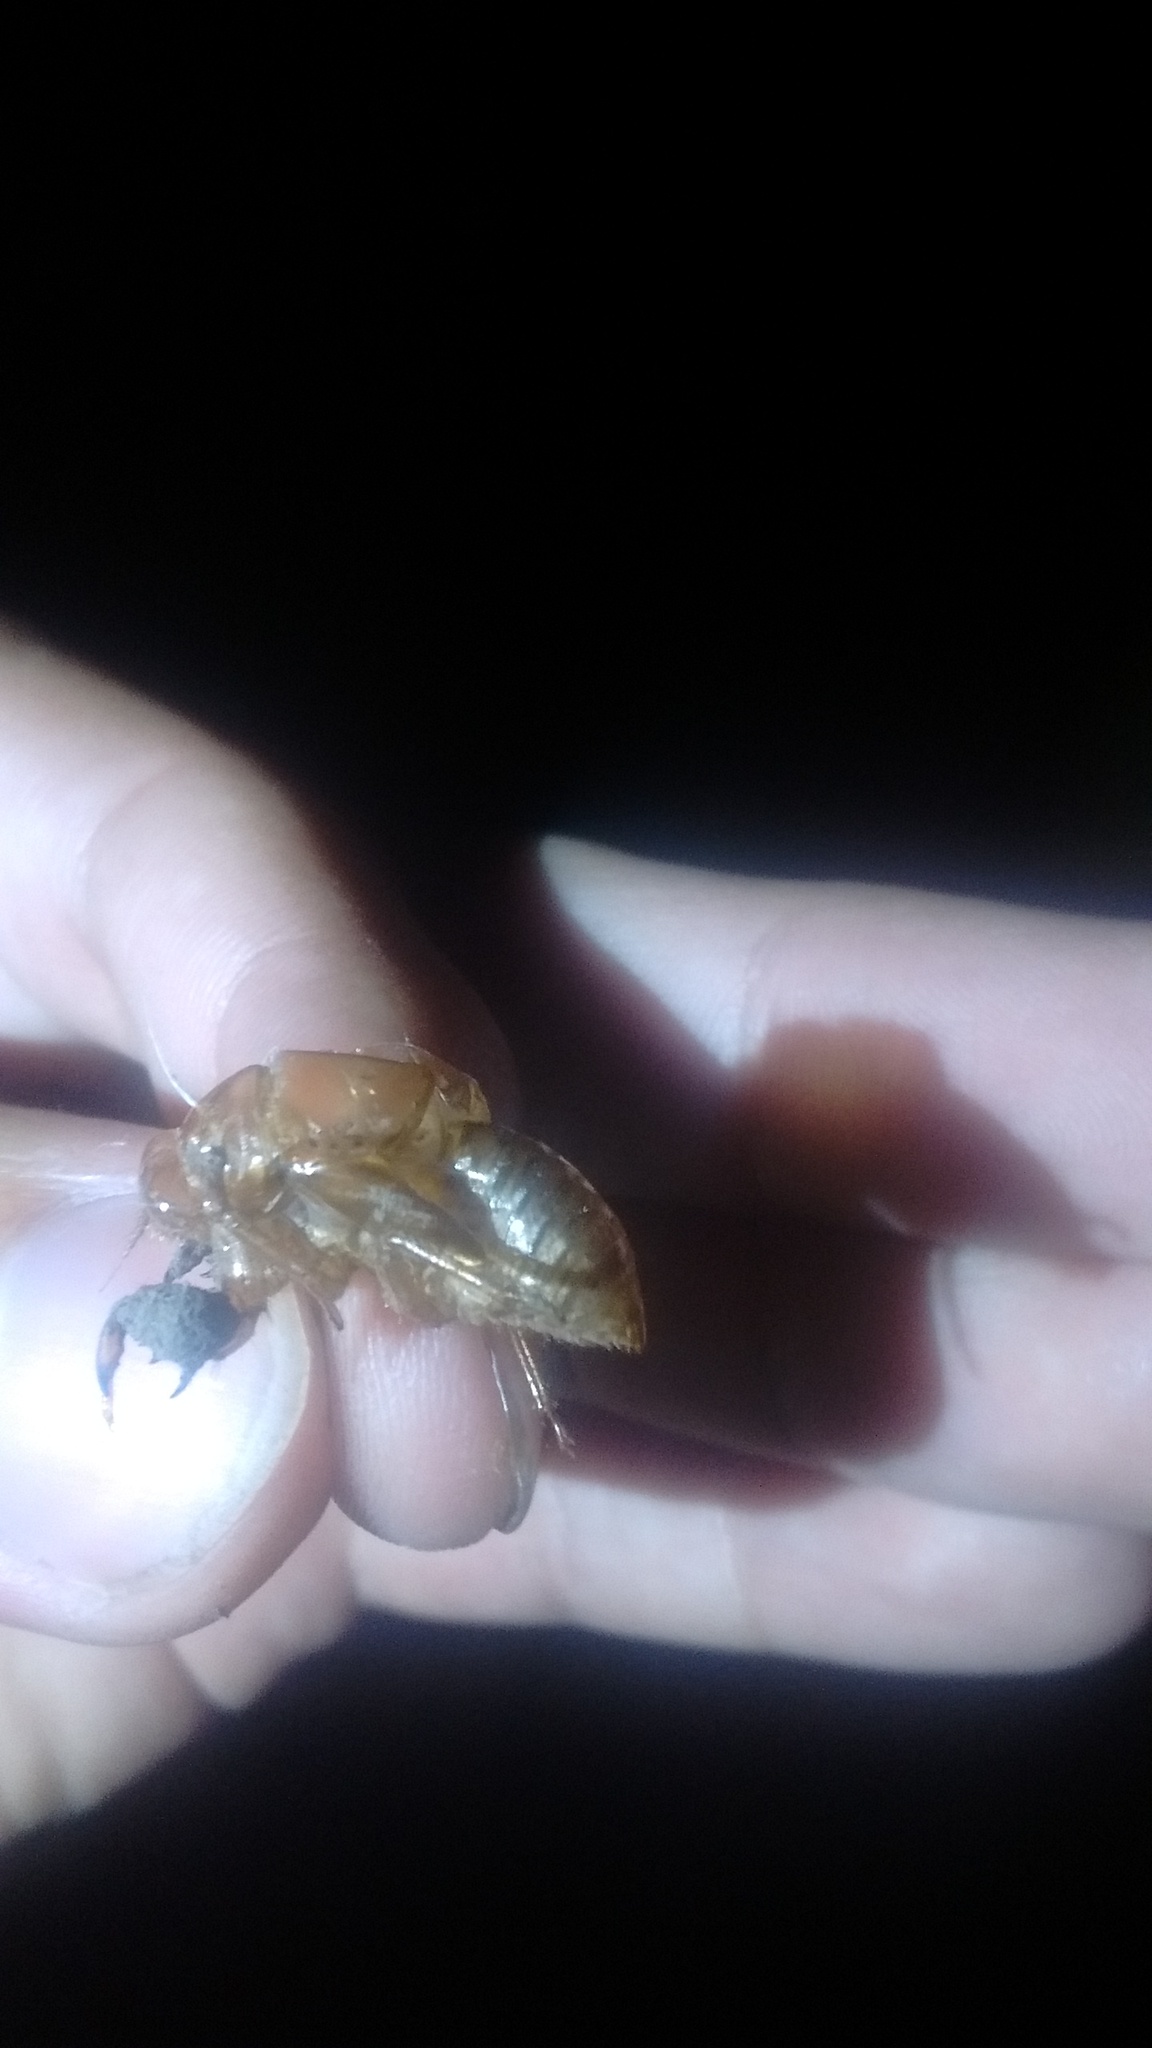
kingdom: Animalia
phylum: Arthropoda
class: Insecta
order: Hemiptera
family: Cicadidae
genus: Acanthoventris
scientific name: Acanthoventris drewseni
